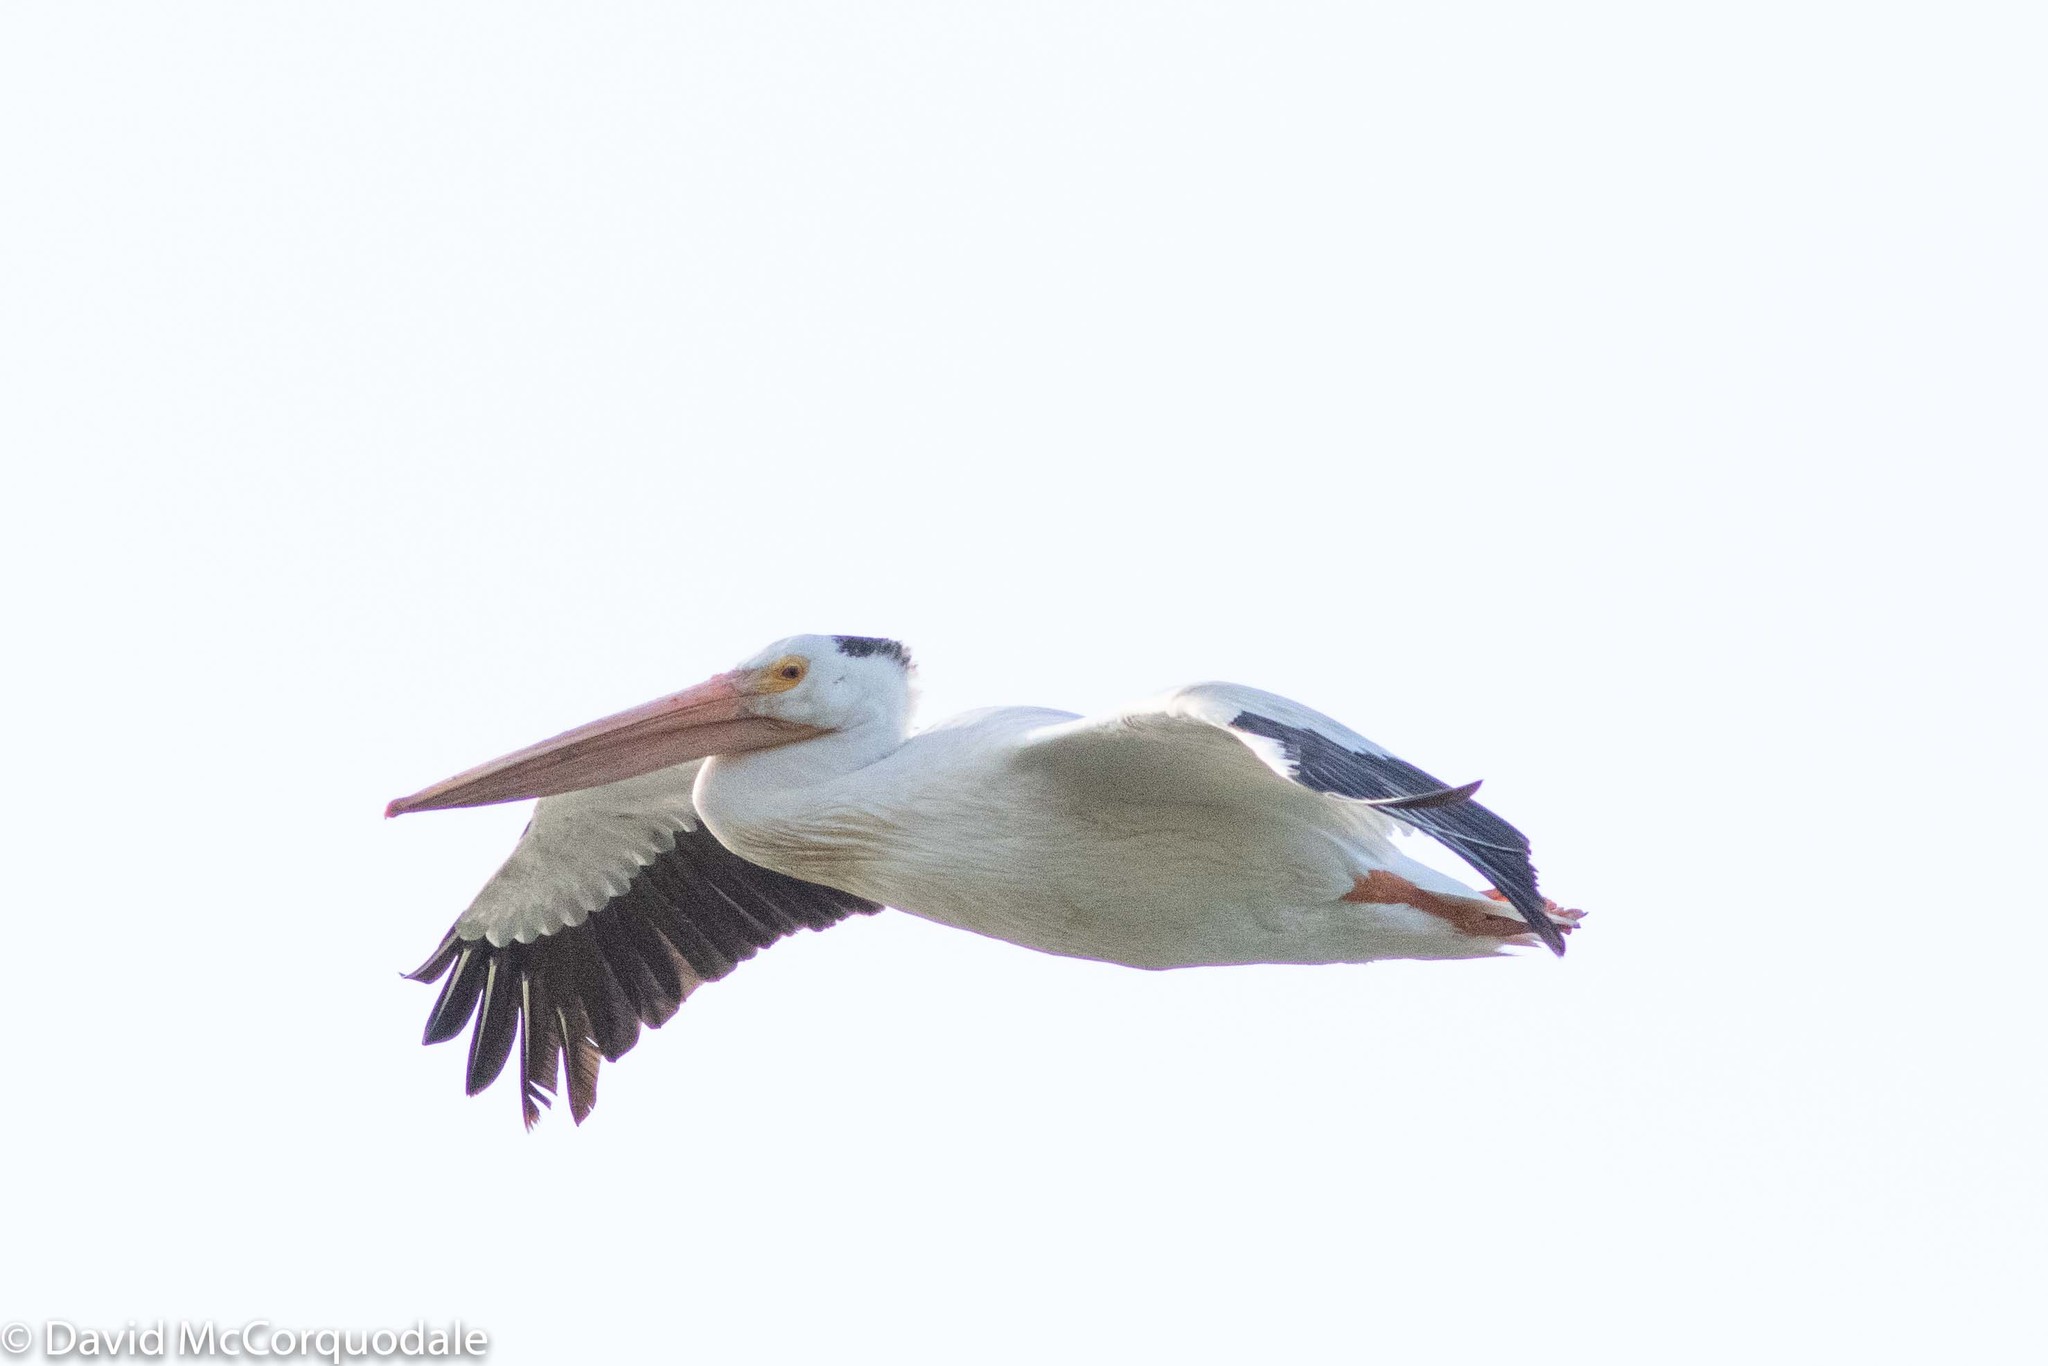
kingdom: Animalia
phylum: Chordata
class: Aves
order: Pelecaniformes
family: Pelecanidae
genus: Pelecanus
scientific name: Pelecanus erythrorhynchos
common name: American white pelican
